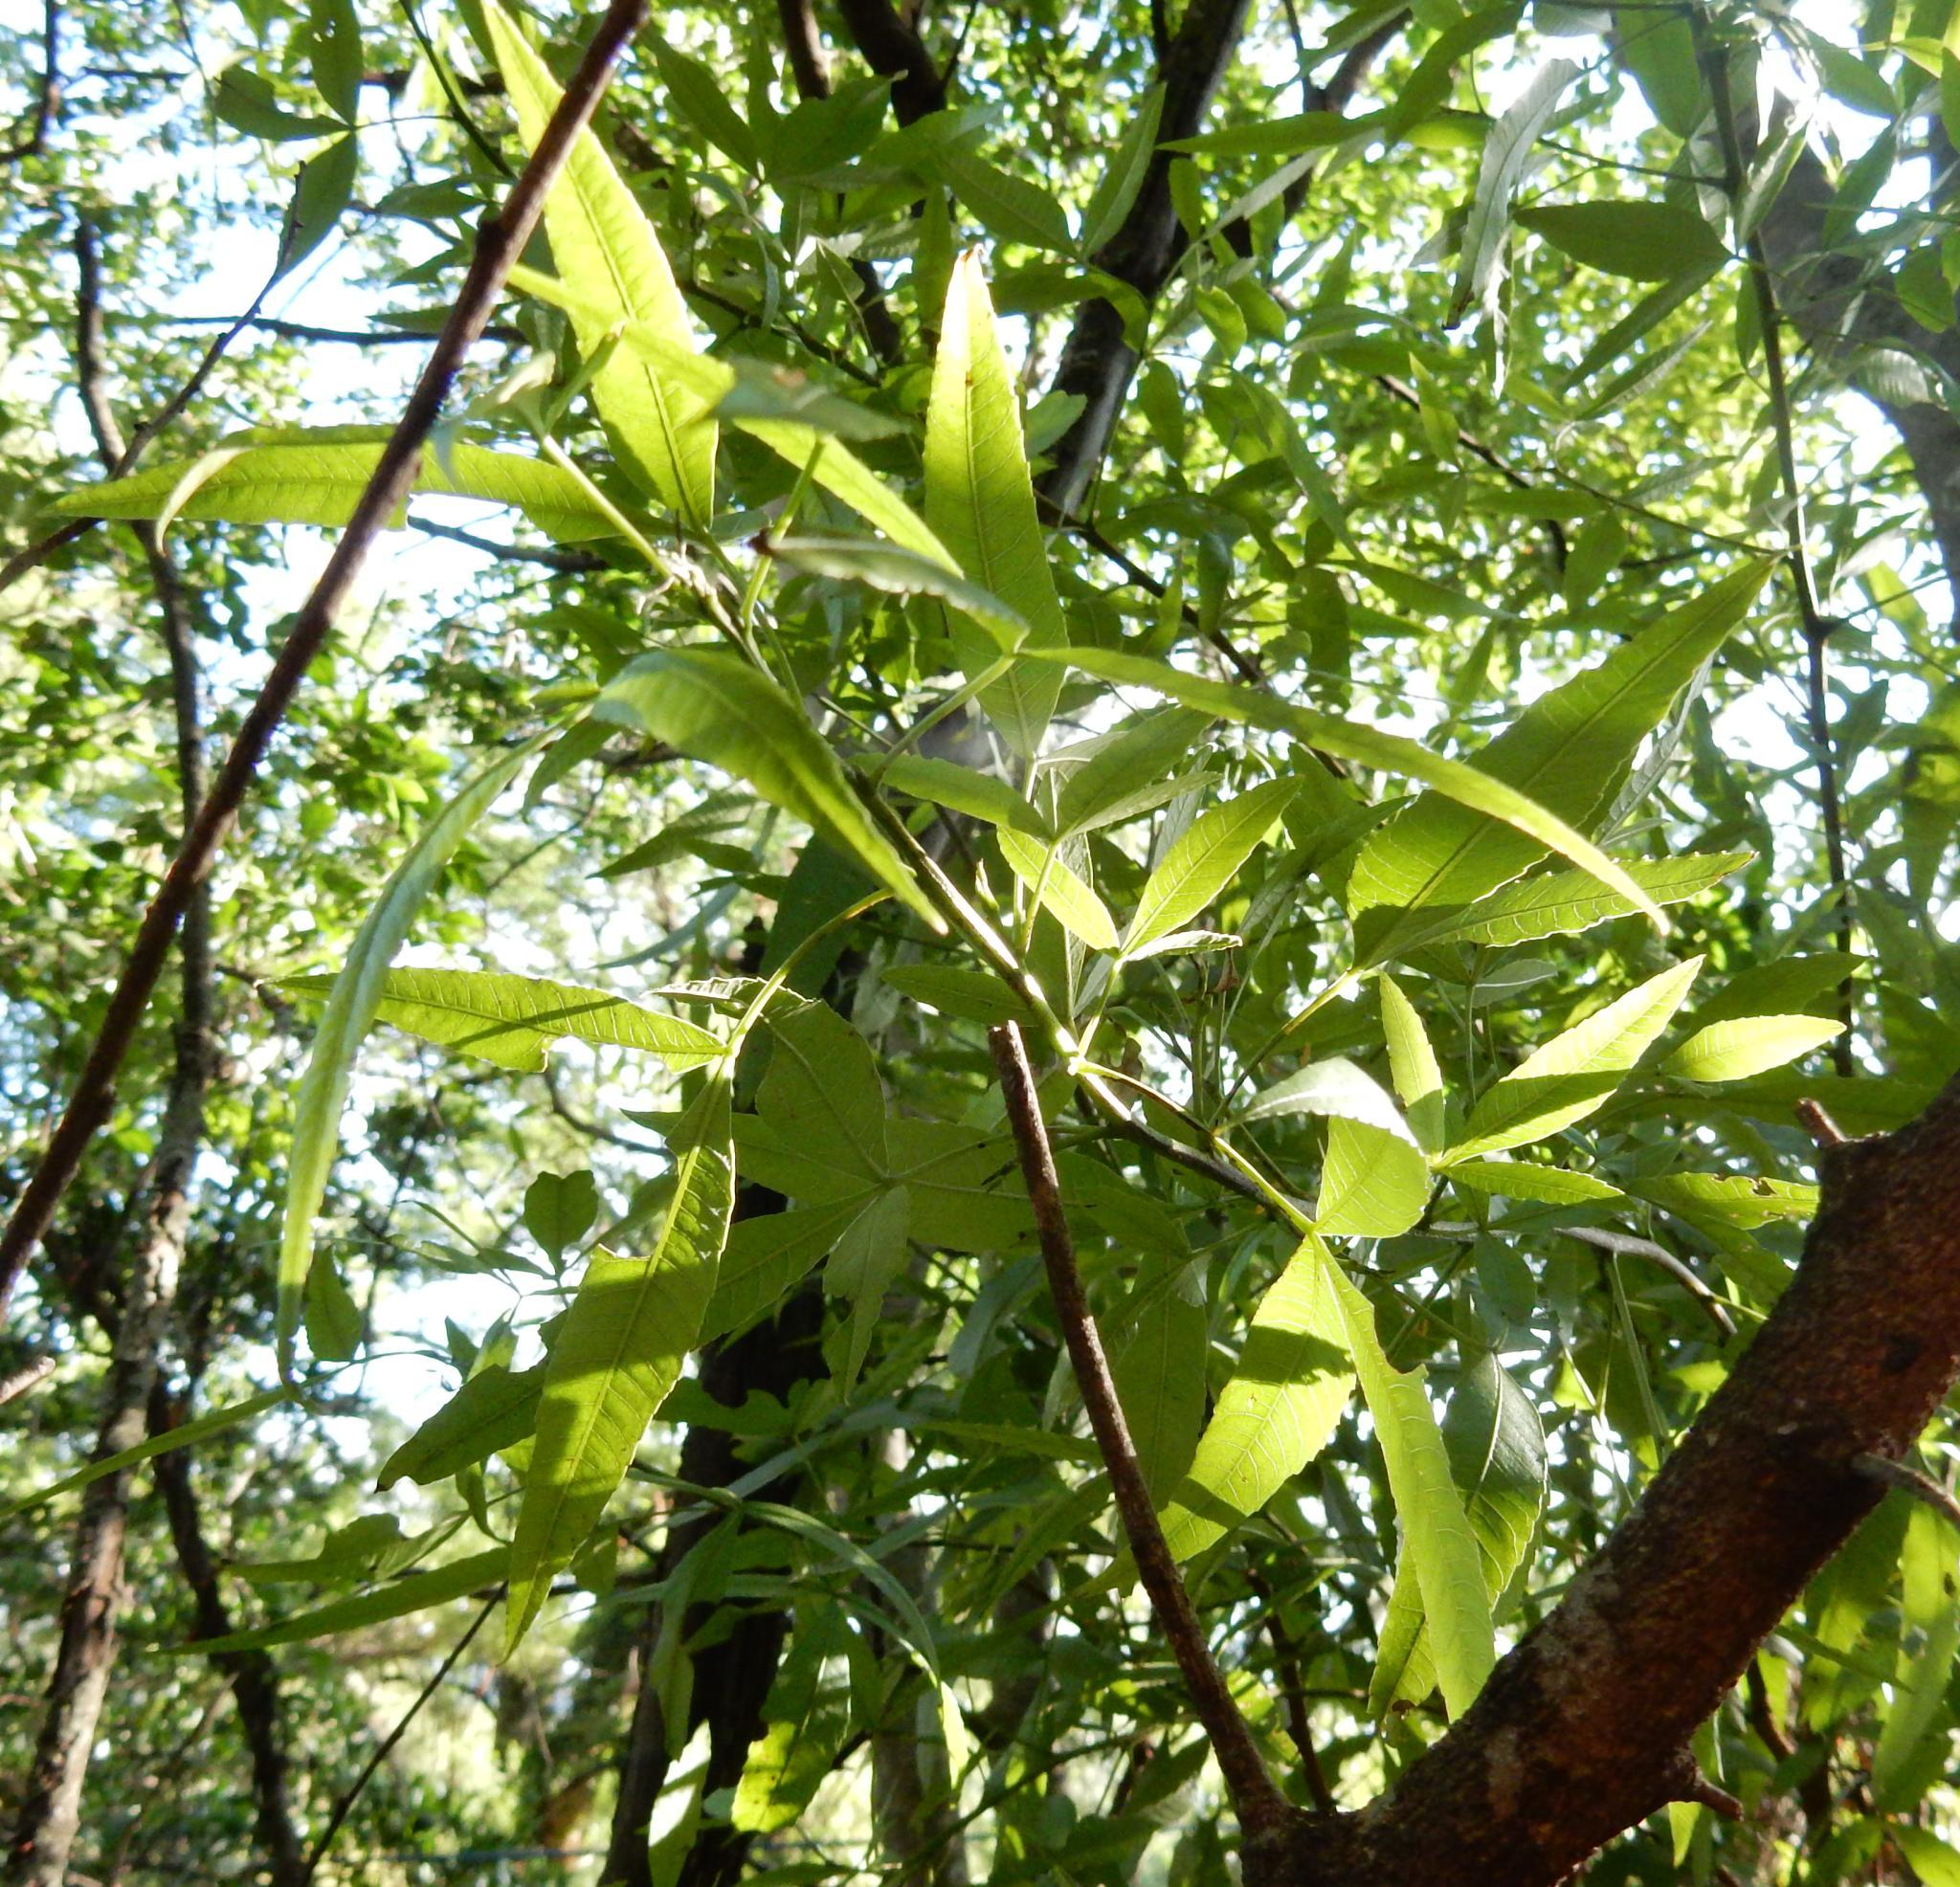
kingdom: Plantae
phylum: Tracheophyta
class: Magnoliopsida
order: Sapindales
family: Anacardiaceae
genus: Searsia
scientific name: Searsia leptodictya
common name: Mountain karee
